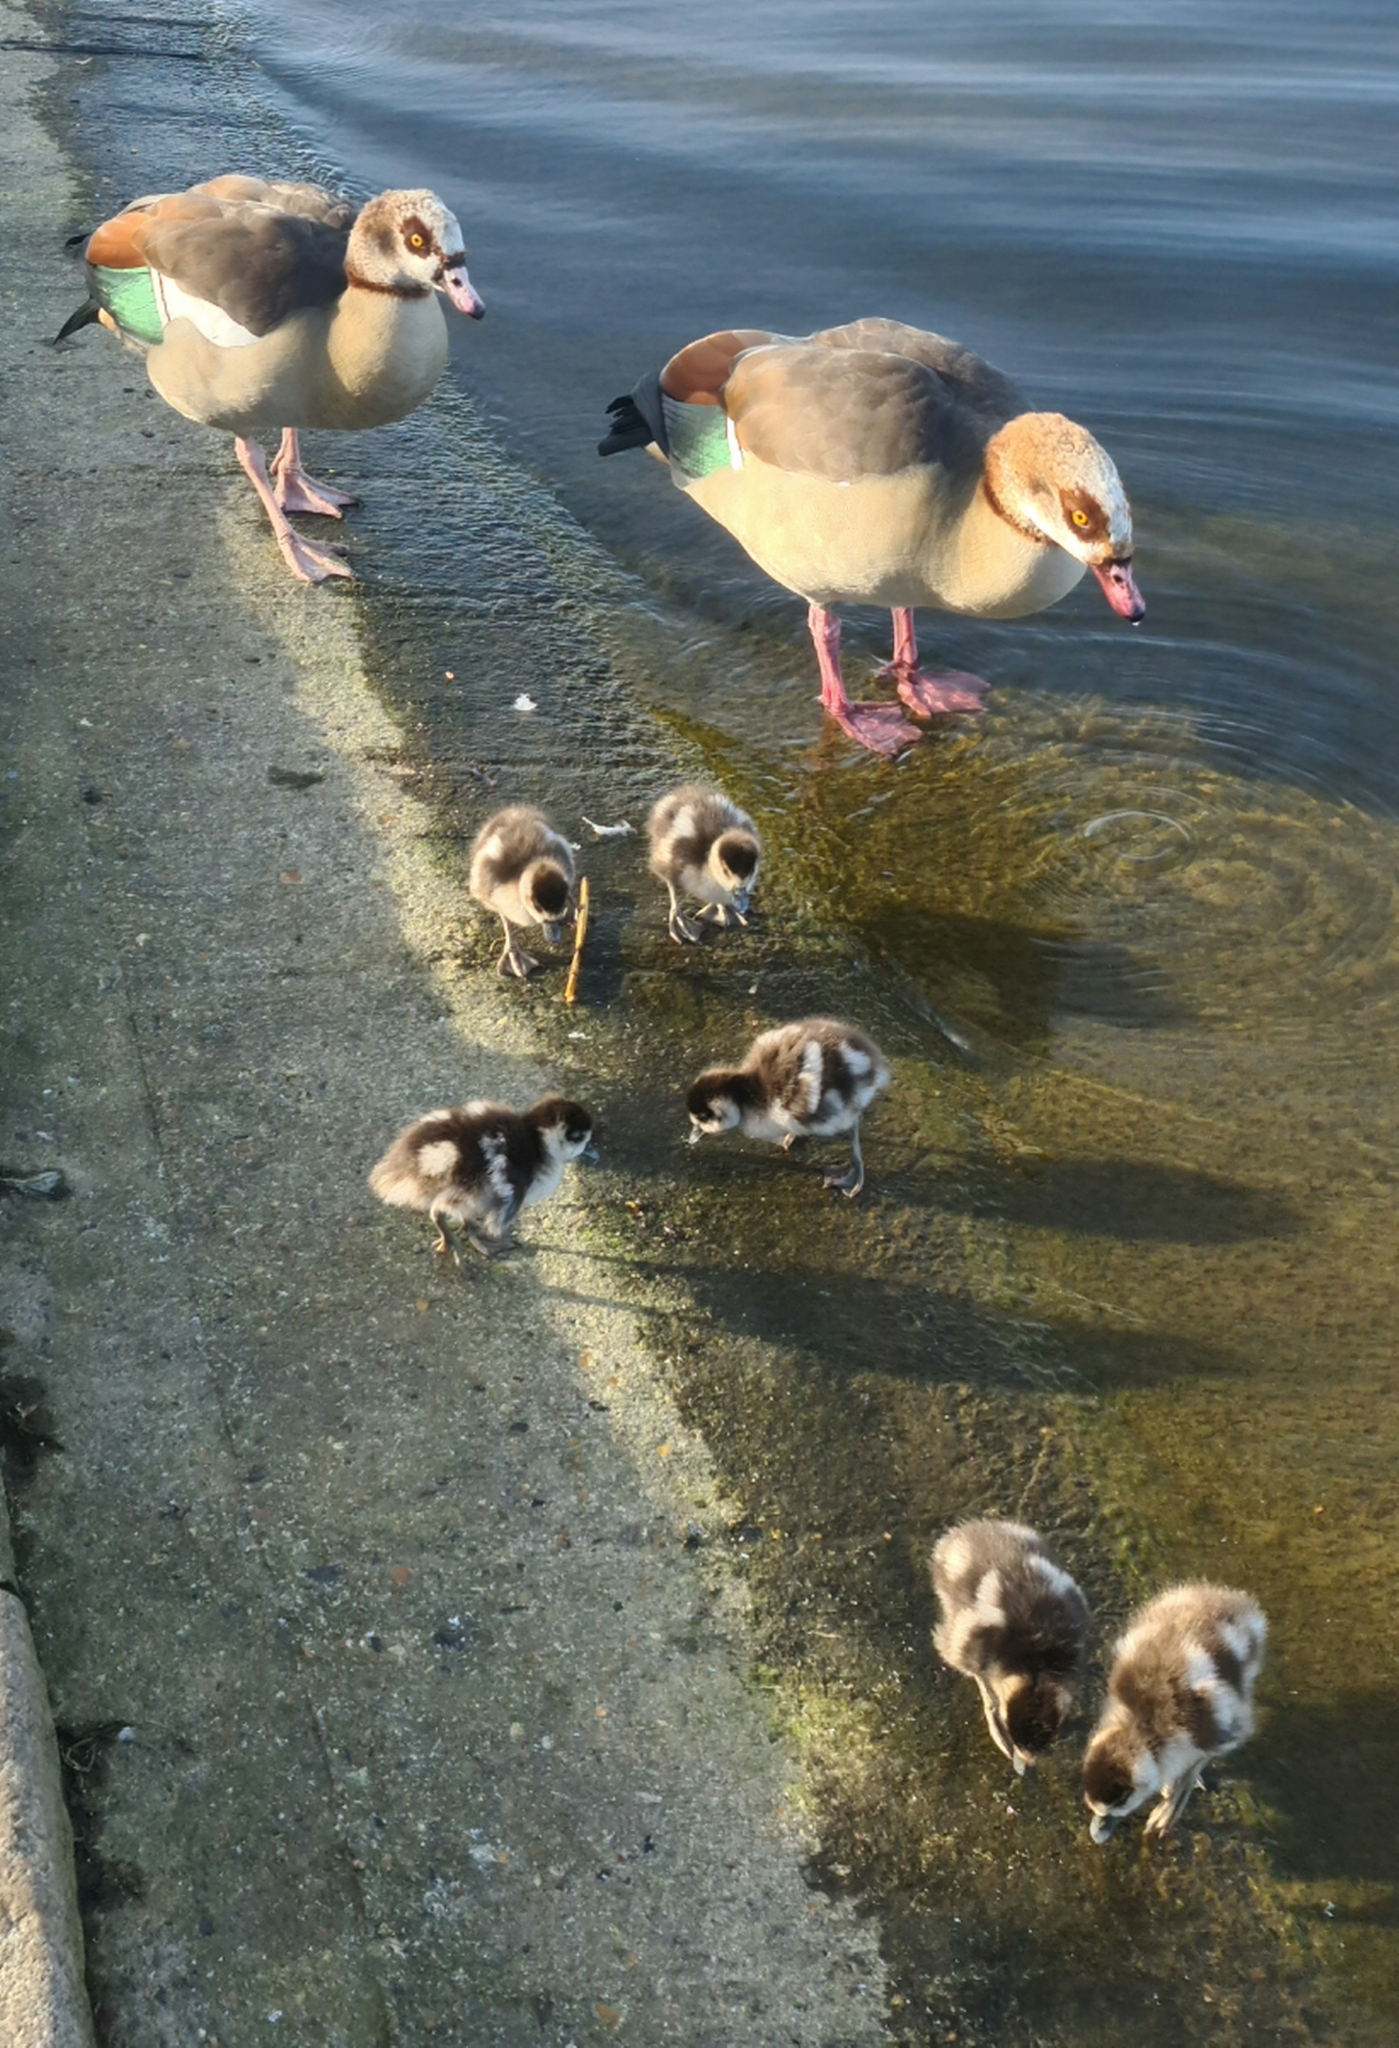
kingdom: Animalia
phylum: Chordata
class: Aves
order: Anseriformes
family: Anatidae
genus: Alopochen
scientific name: Alopochen aegyptiaca
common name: Egyptian goose
